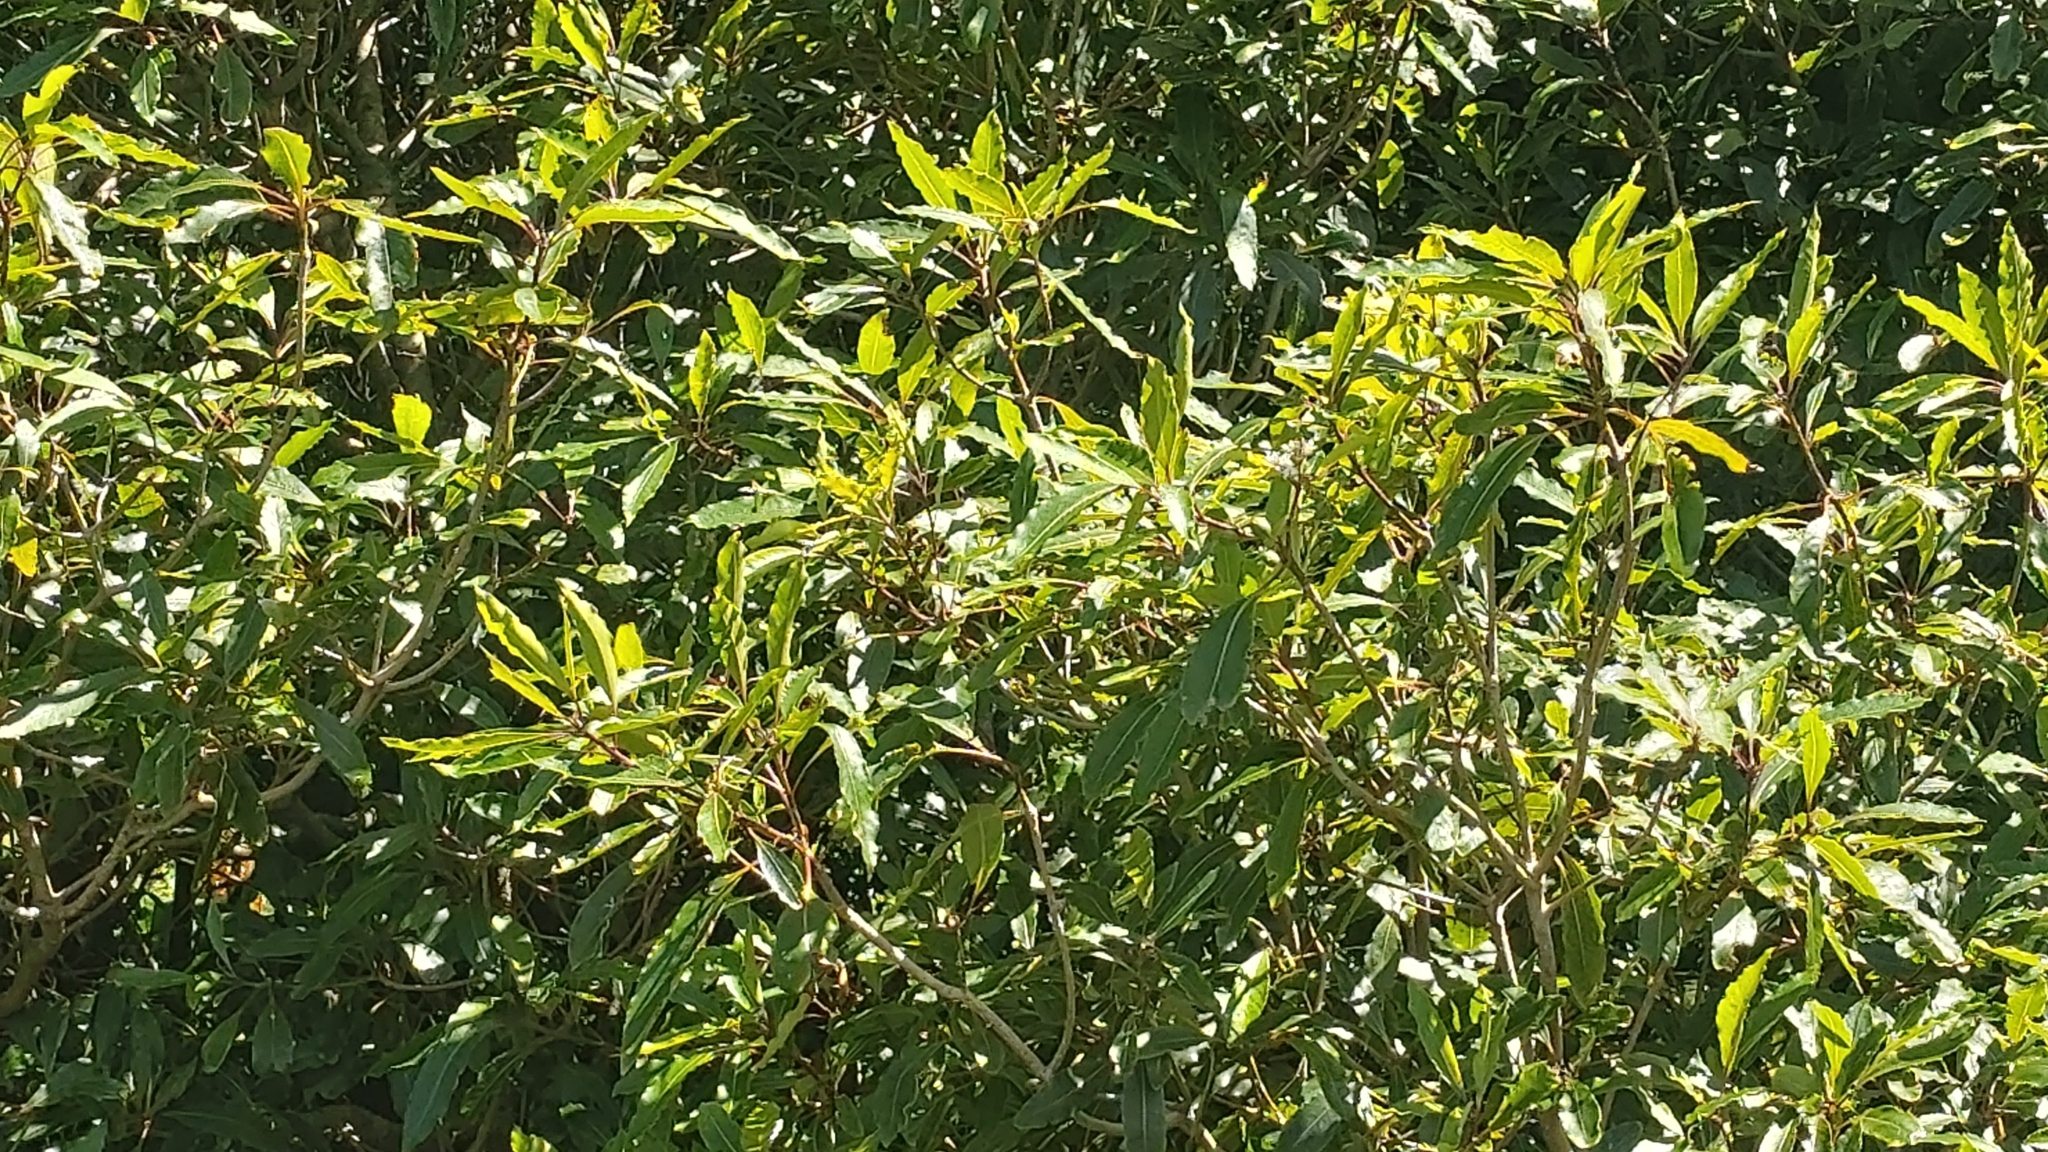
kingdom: Plantae
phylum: Tracheophyta
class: Magnoliopsida
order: Apiales
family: Pittosporaceae
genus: Pittosporum
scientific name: Pittosporum undulatum
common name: Australian cheesewood
